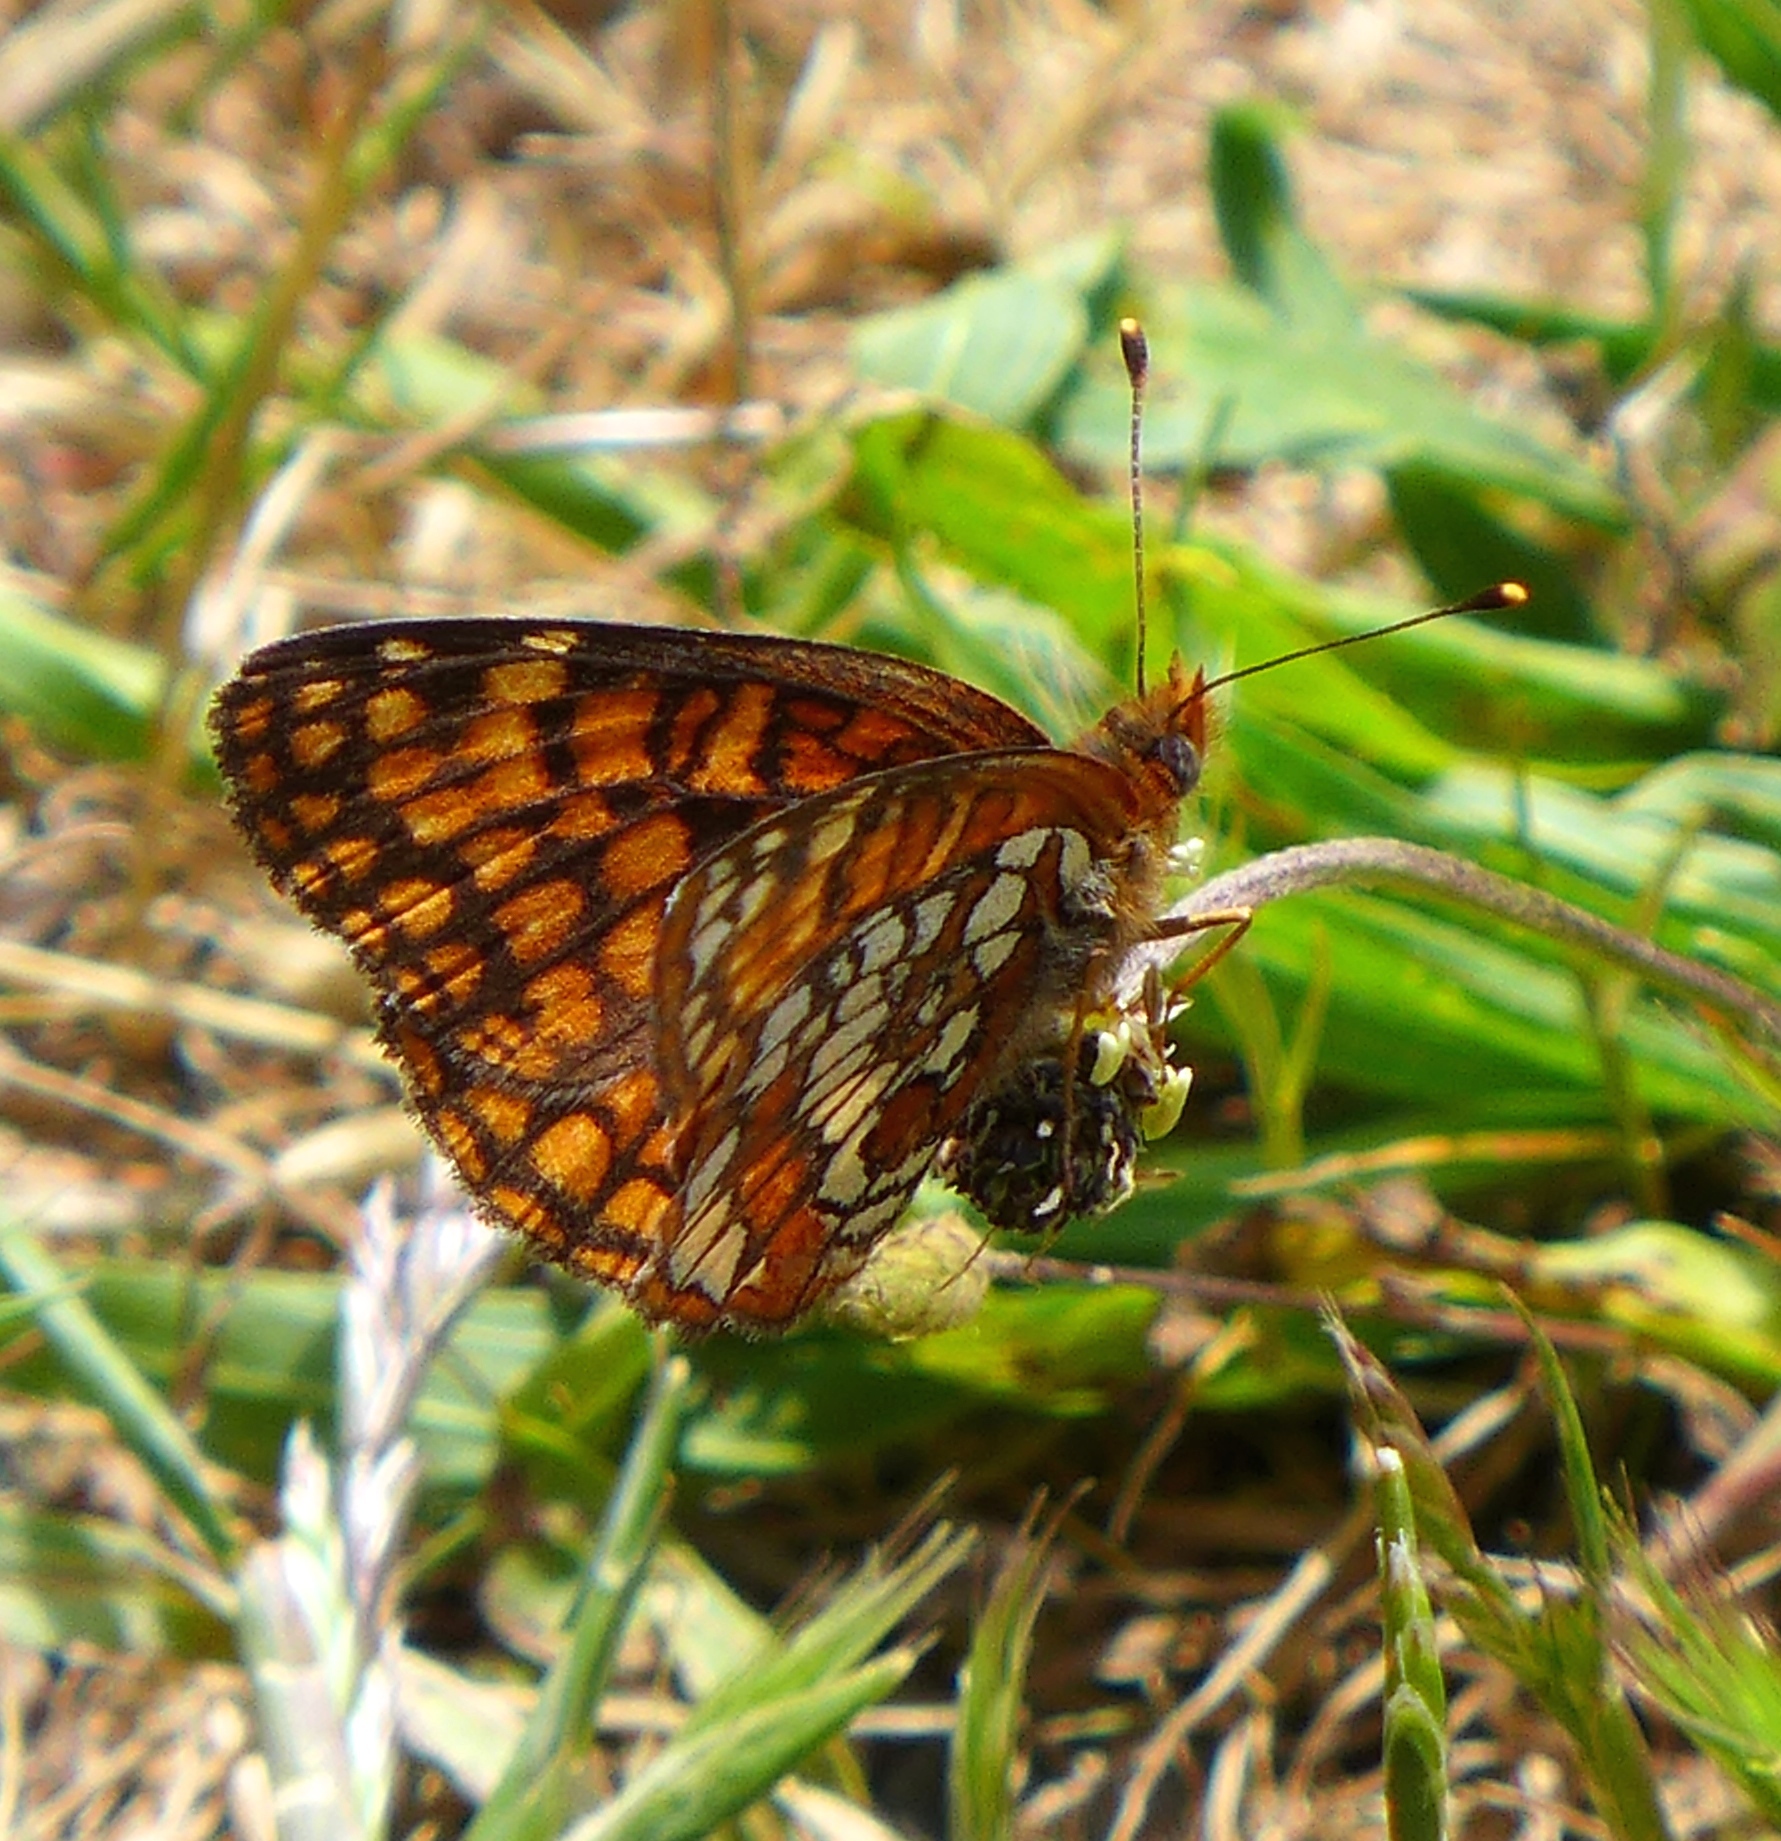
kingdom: Animalia
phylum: Arthropoda
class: Insecta
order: Lepidoptera
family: Nymphalidae
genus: Chlosyne
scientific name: Chlosyne palla
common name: Northern checkerspot
